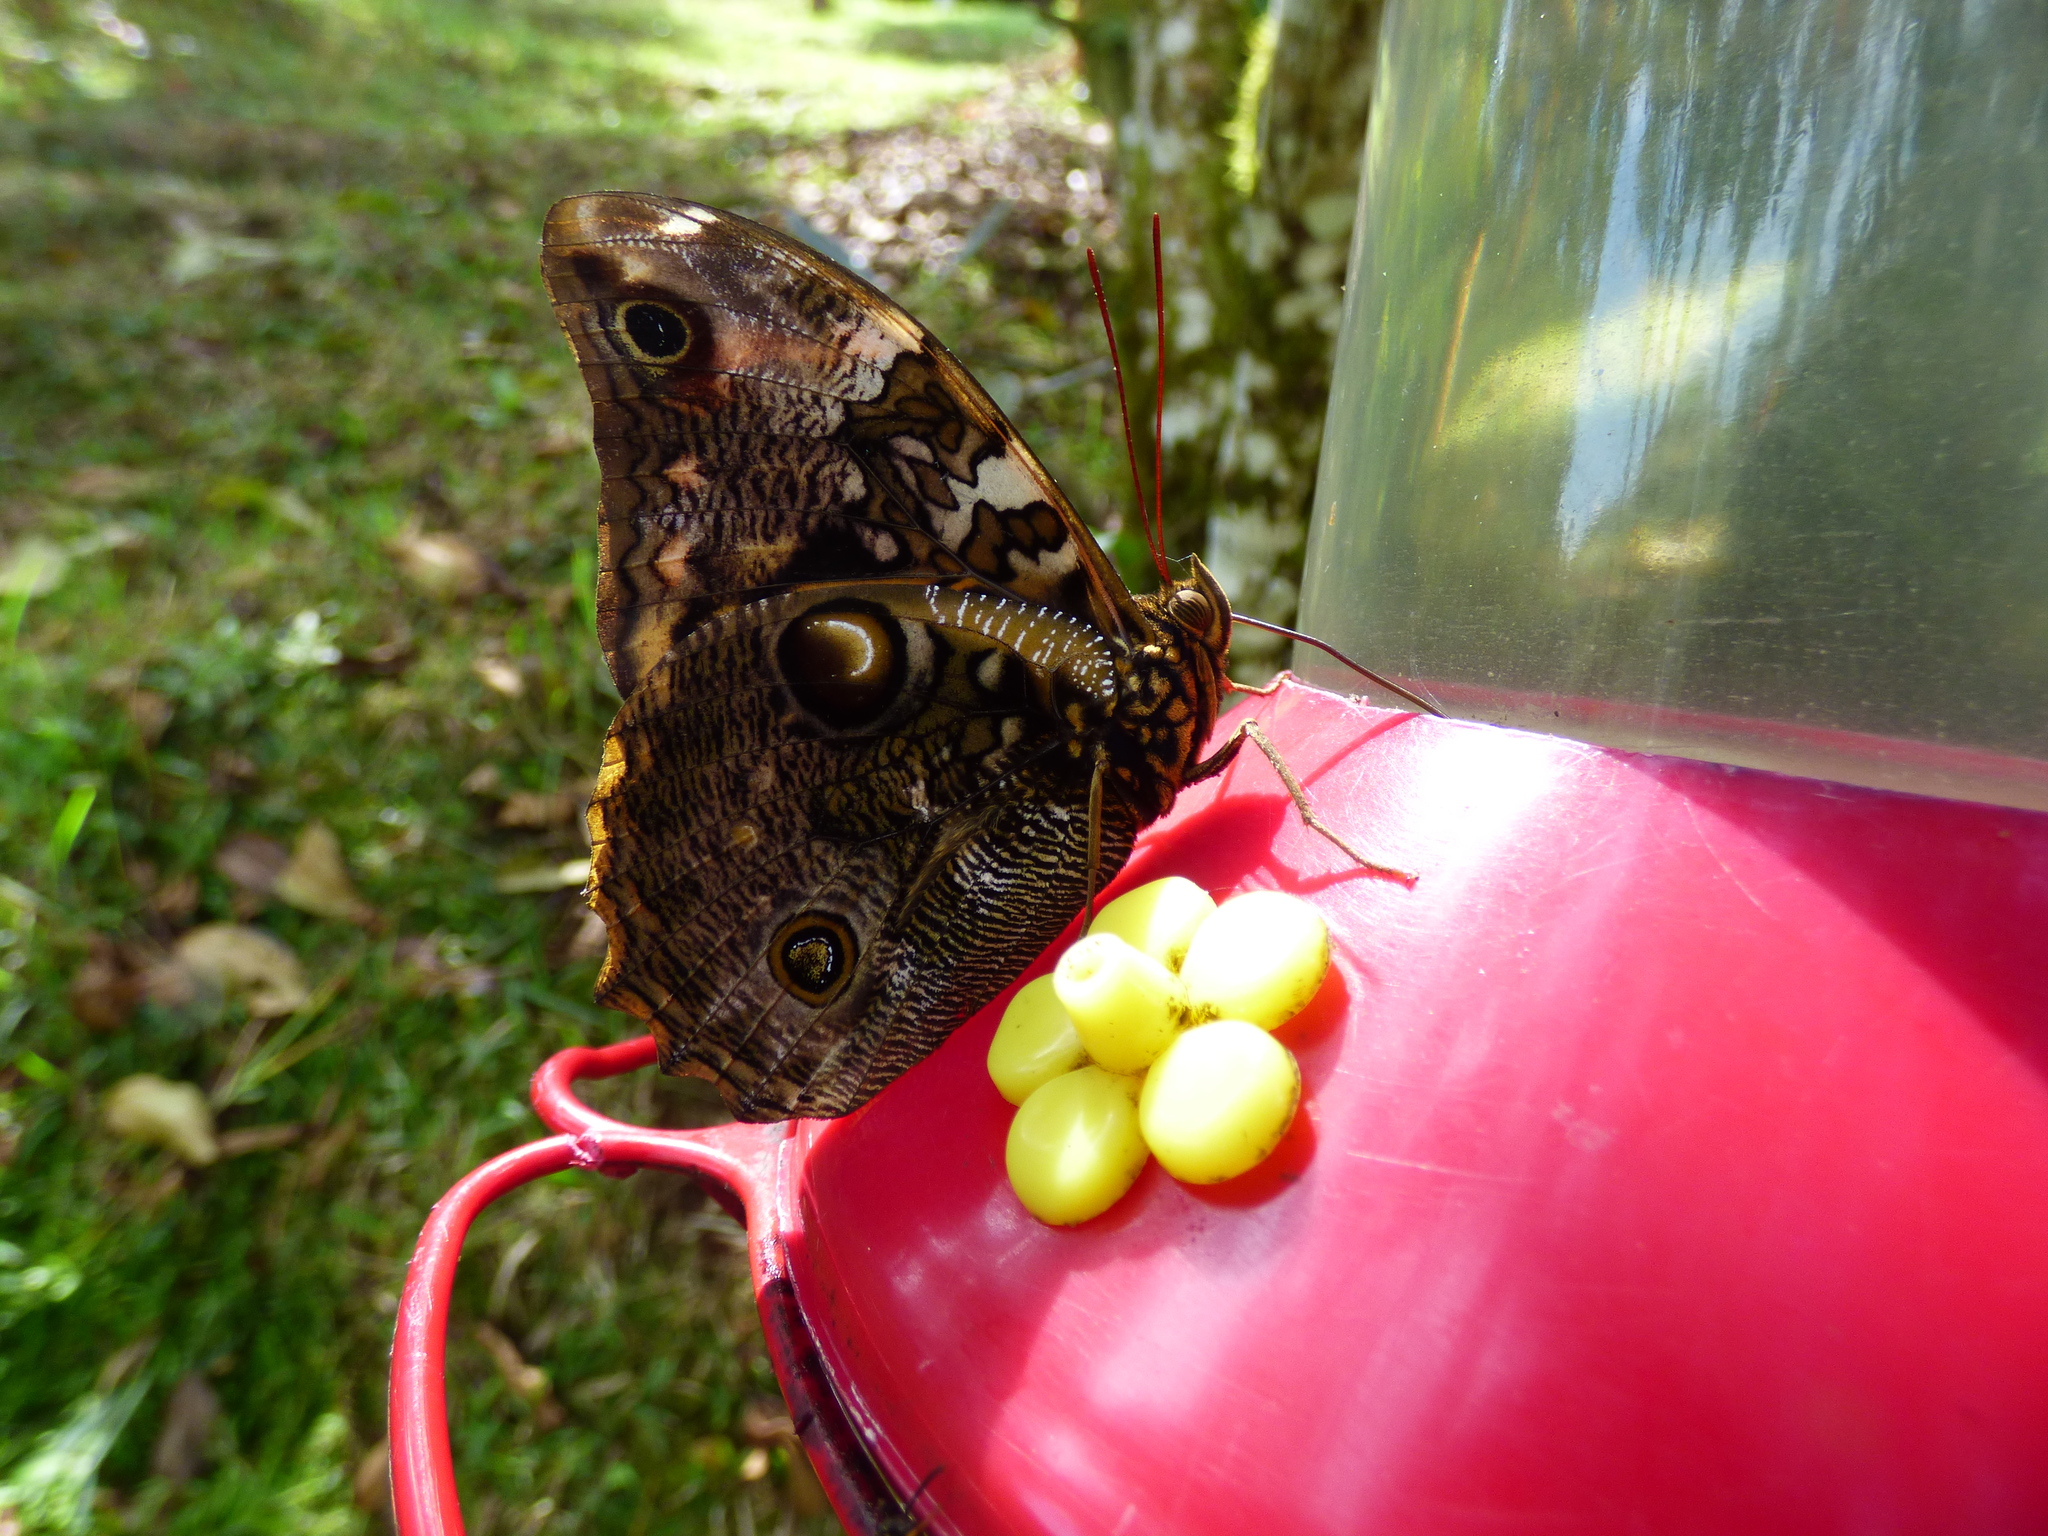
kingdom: Animalia
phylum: Arthropoda
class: Insecta
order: Lepidoptera
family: Nymphalidae
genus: Opsiphanes
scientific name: Opsiphanes camena
